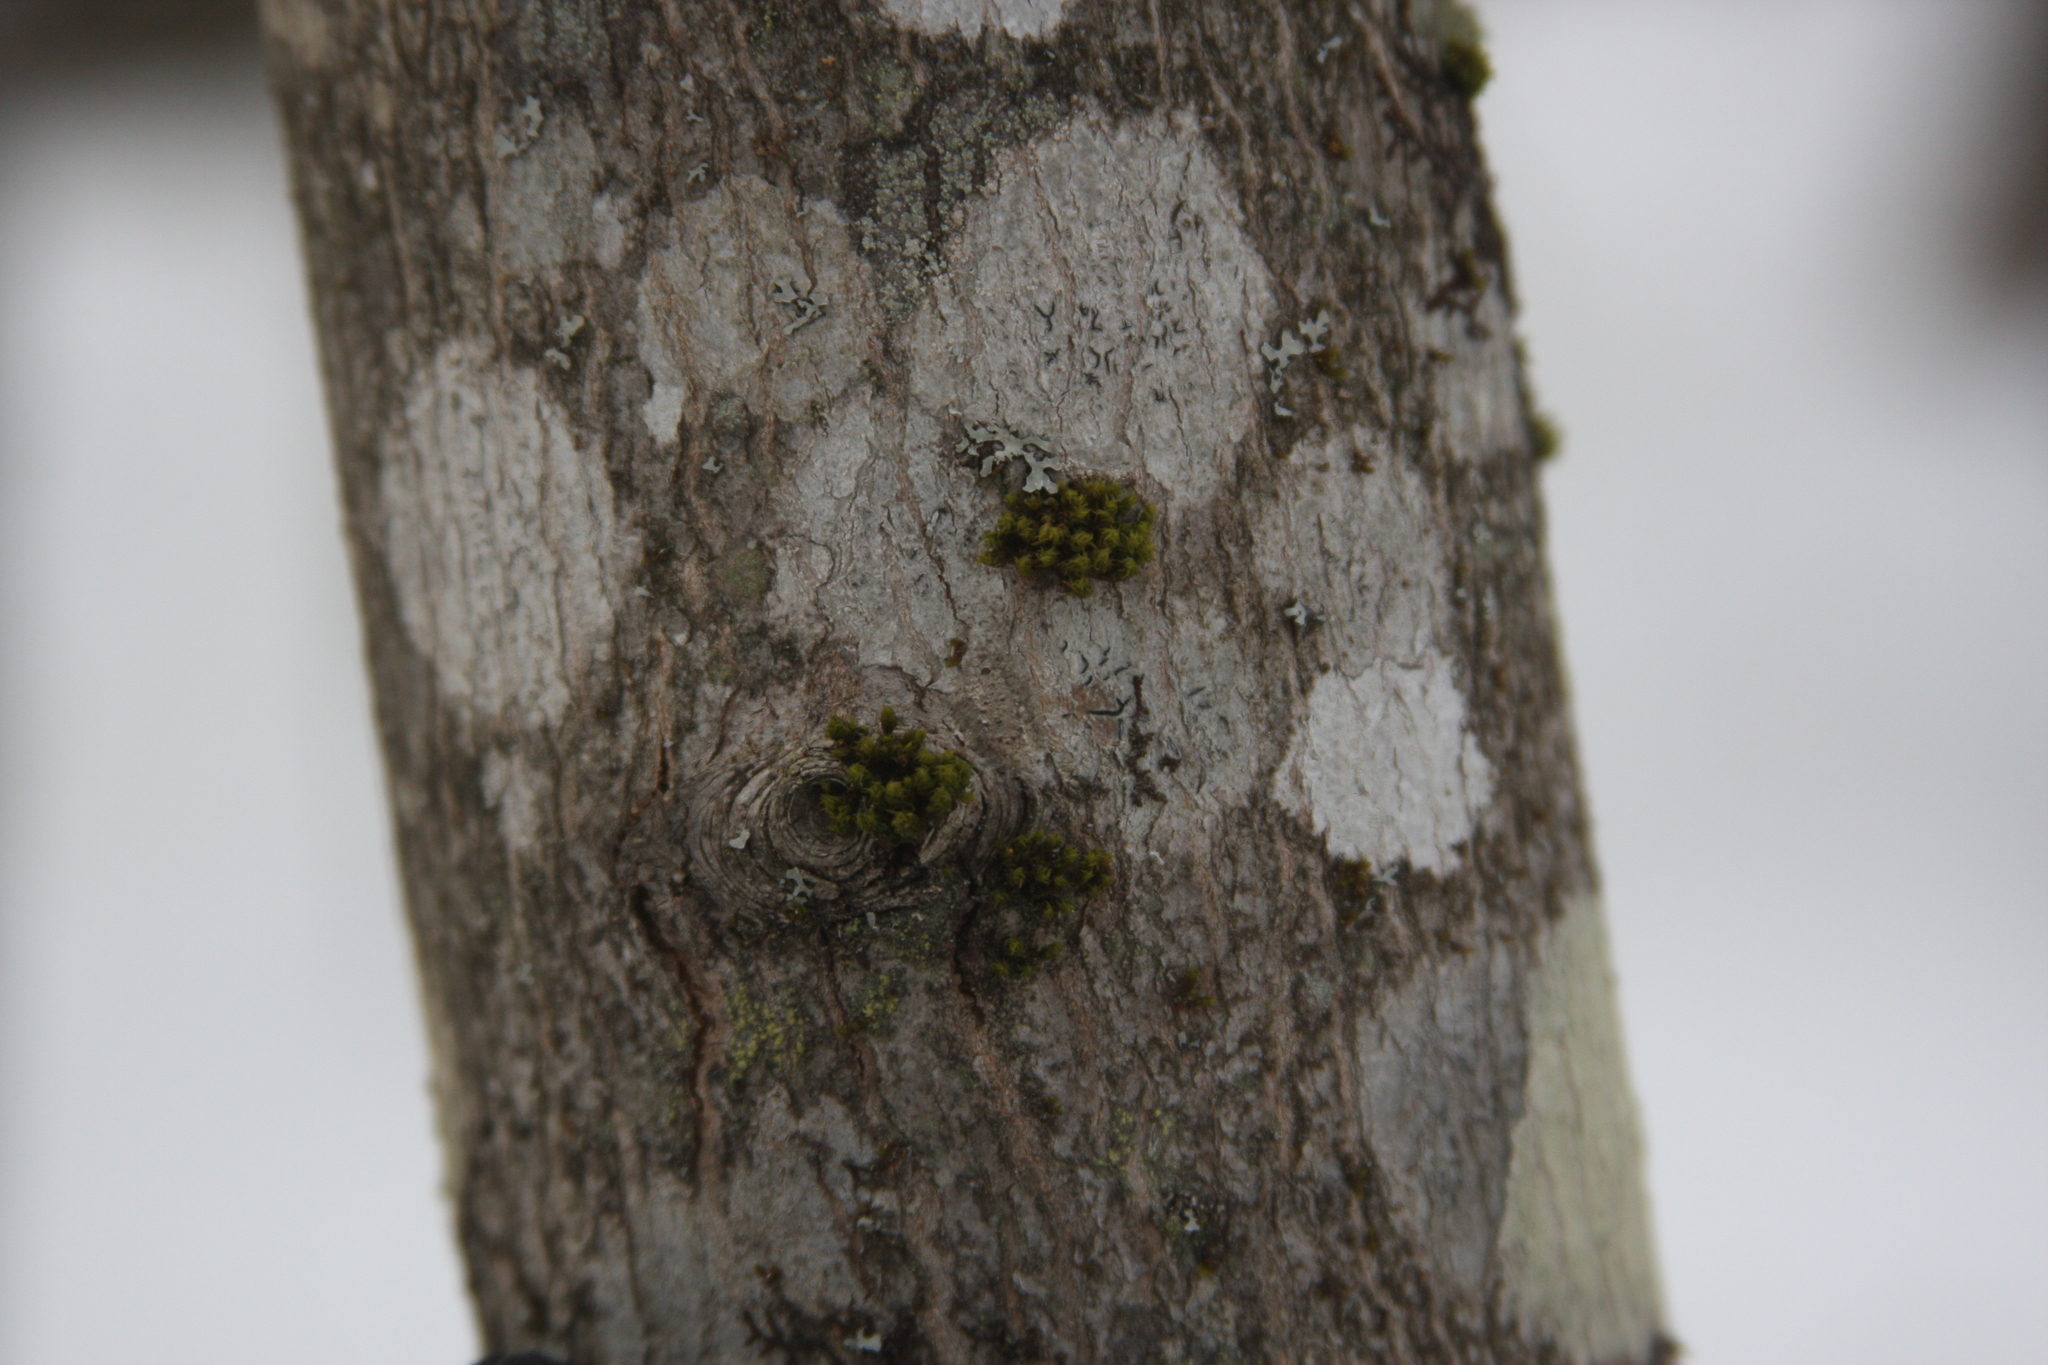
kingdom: Plantae
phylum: Bryophyta
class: Bryopsida
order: Orthotrichales
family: Orthotrichaceae
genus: Ulota
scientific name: Ulota crispa
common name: Crisped pincushion moss
